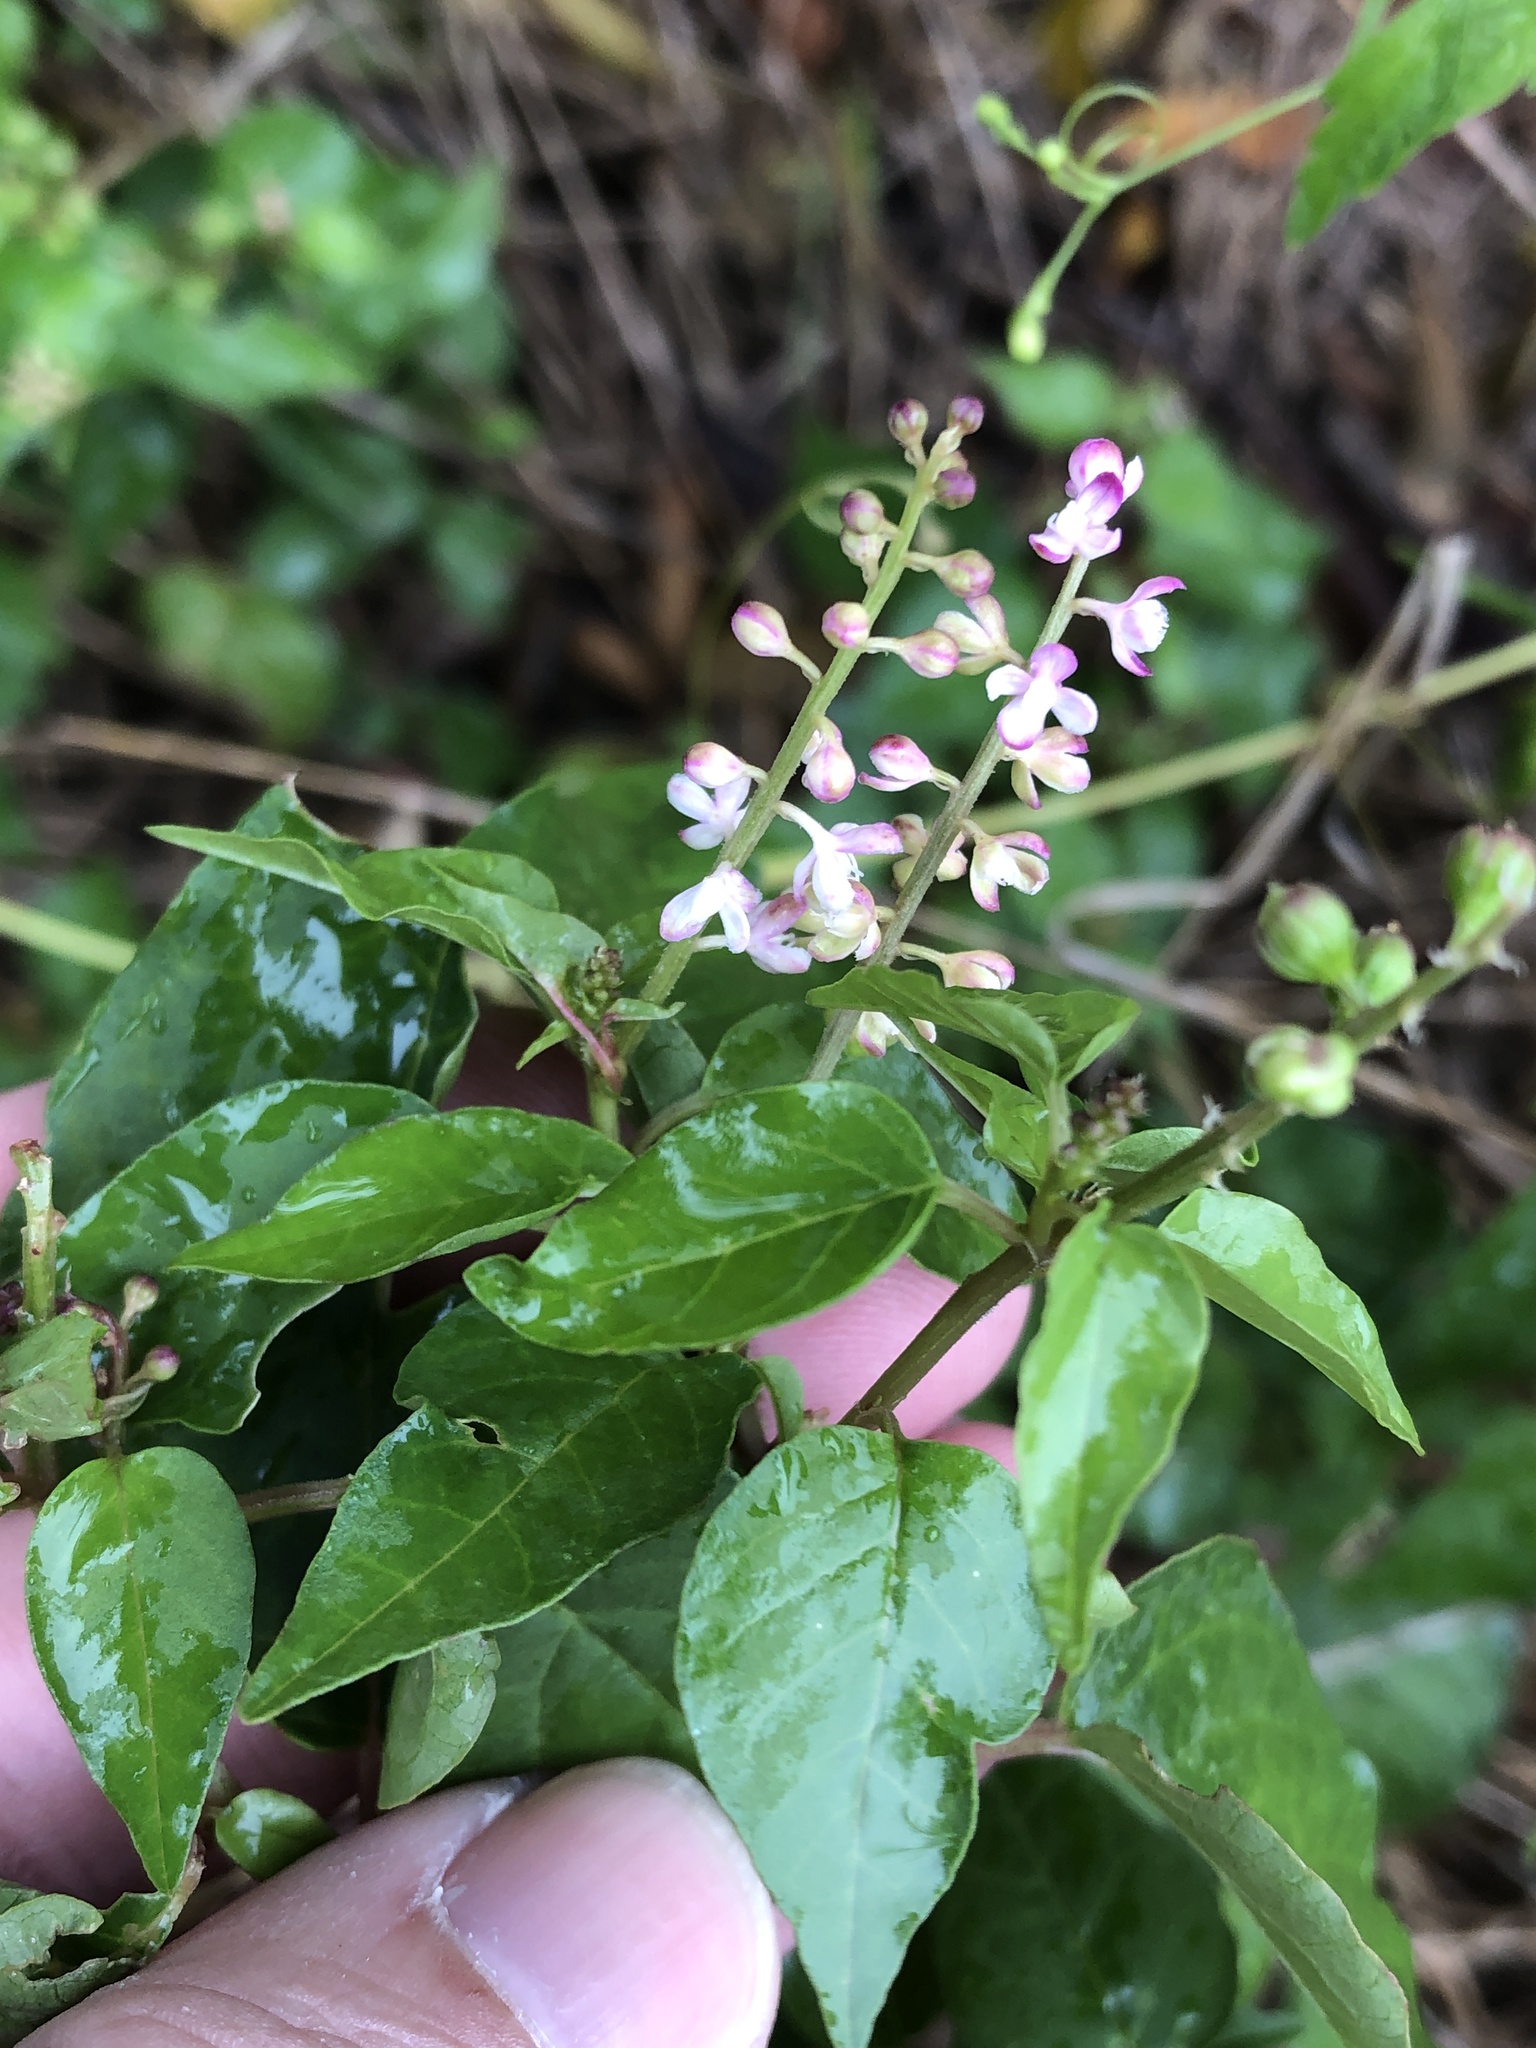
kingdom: Plantae
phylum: Tracheophyta
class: Magnoliopsida
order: Caryophyllales
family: Phytolaccaceae
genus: Rivina
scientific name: Rivina humilis
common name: Rougeplant
